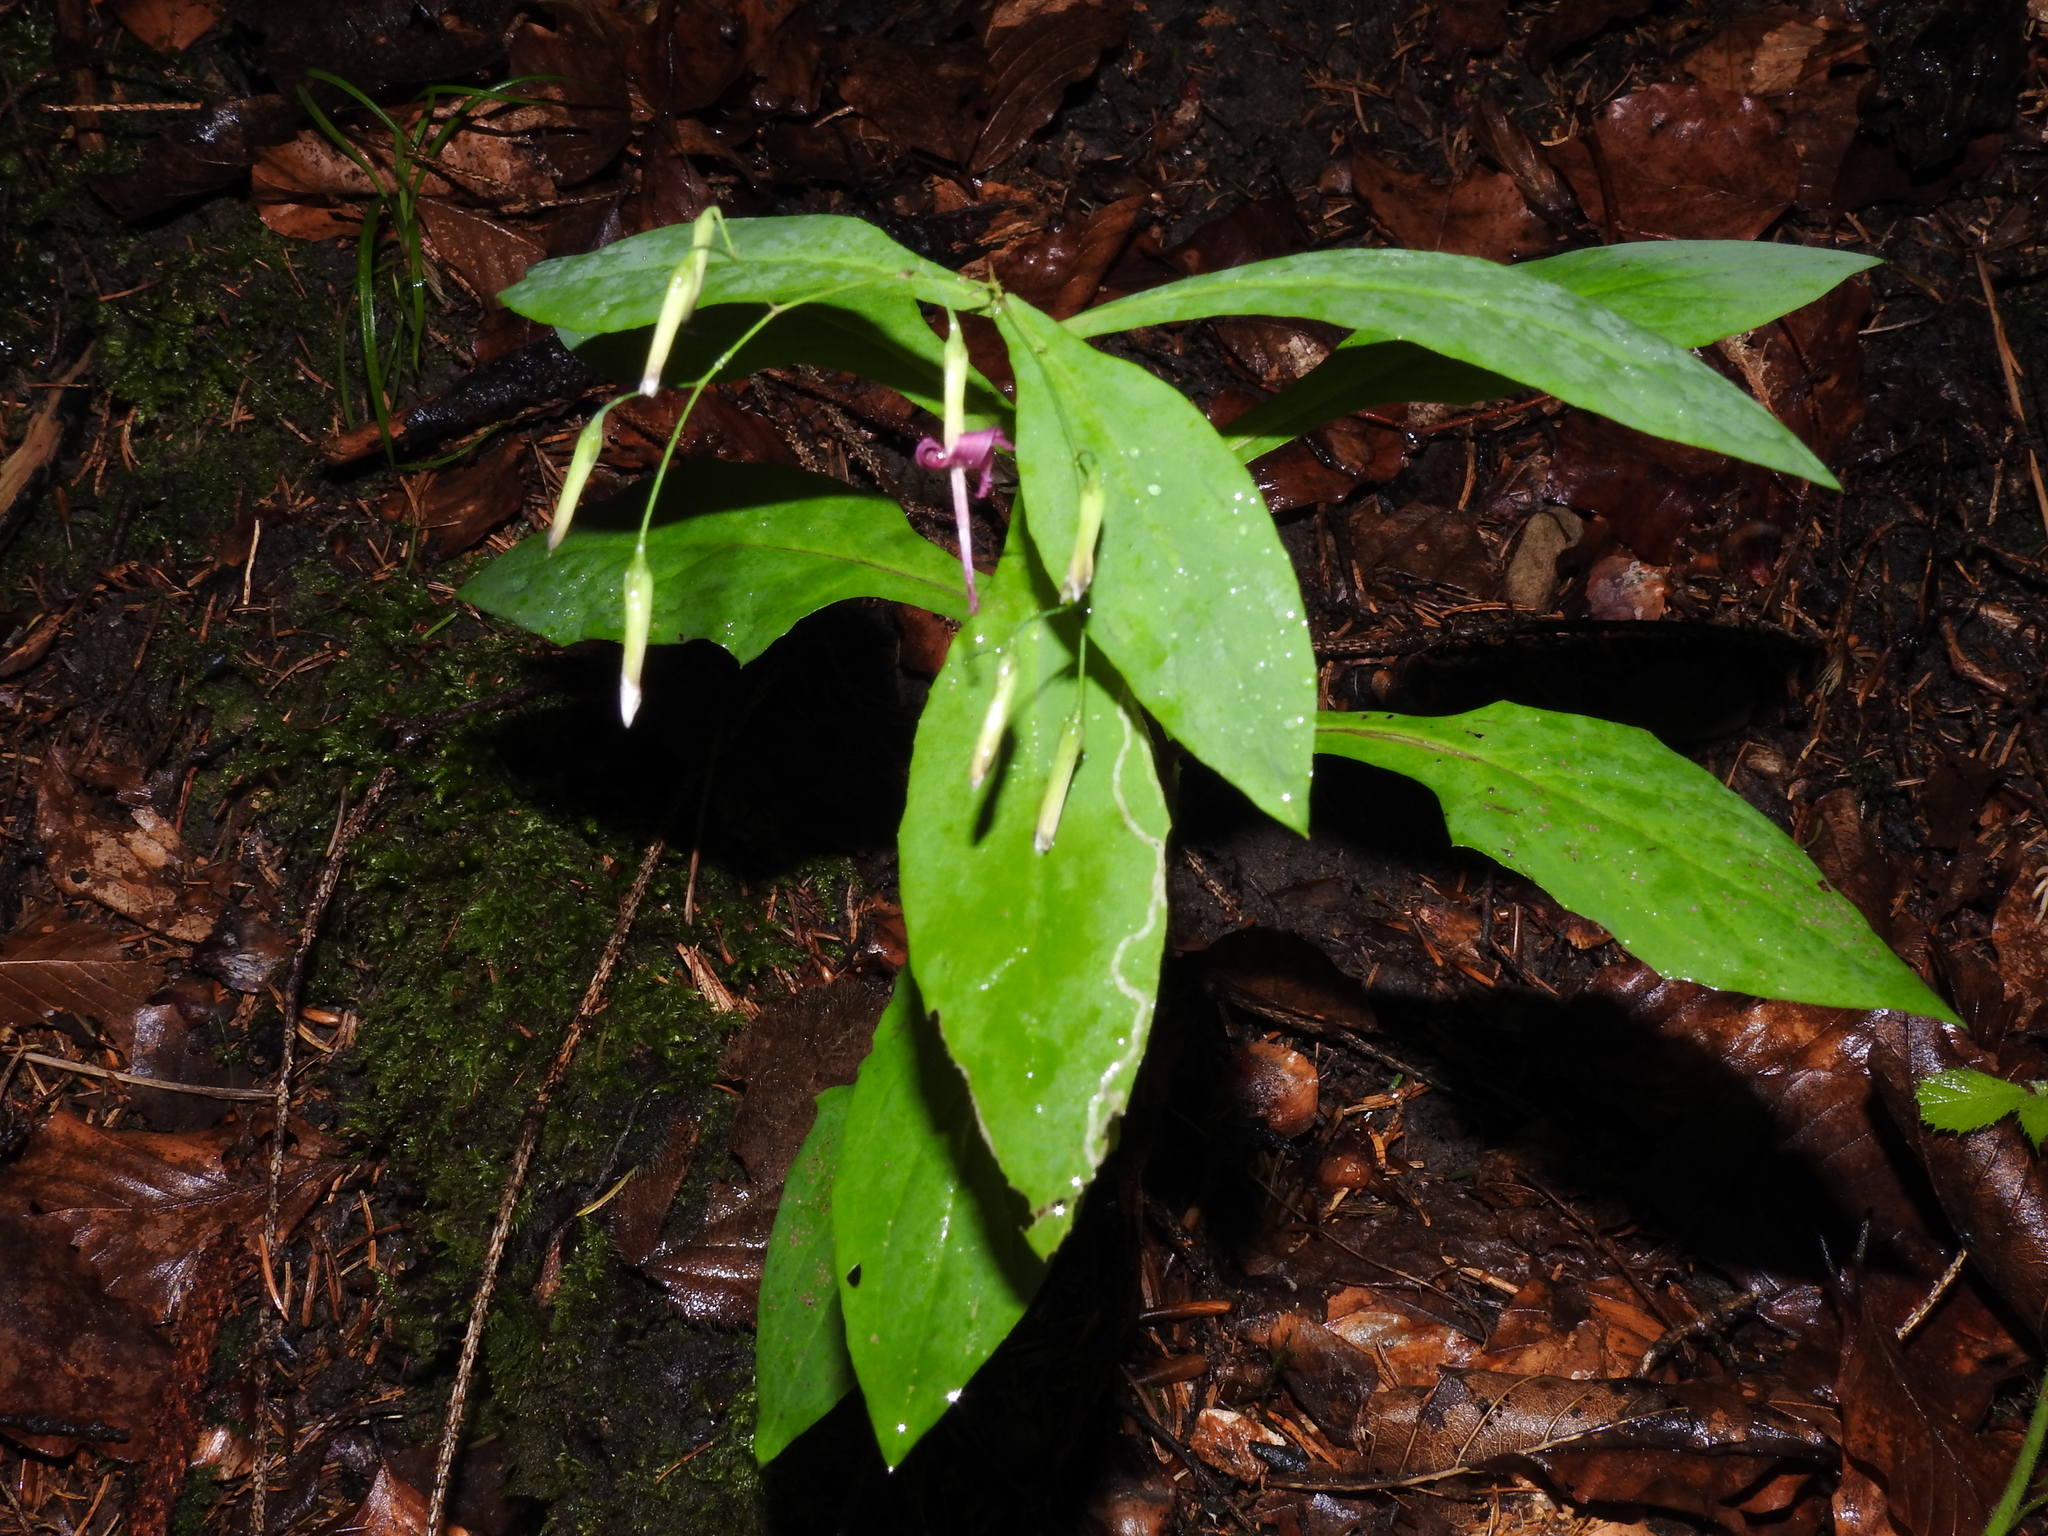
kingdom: Plantae
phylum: Tracheophyta
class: Magnoliopsida
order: Asterales
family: Asteraceae
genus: Prenanthes
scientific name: Prenanthes purpurea
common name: Purple lettuce
